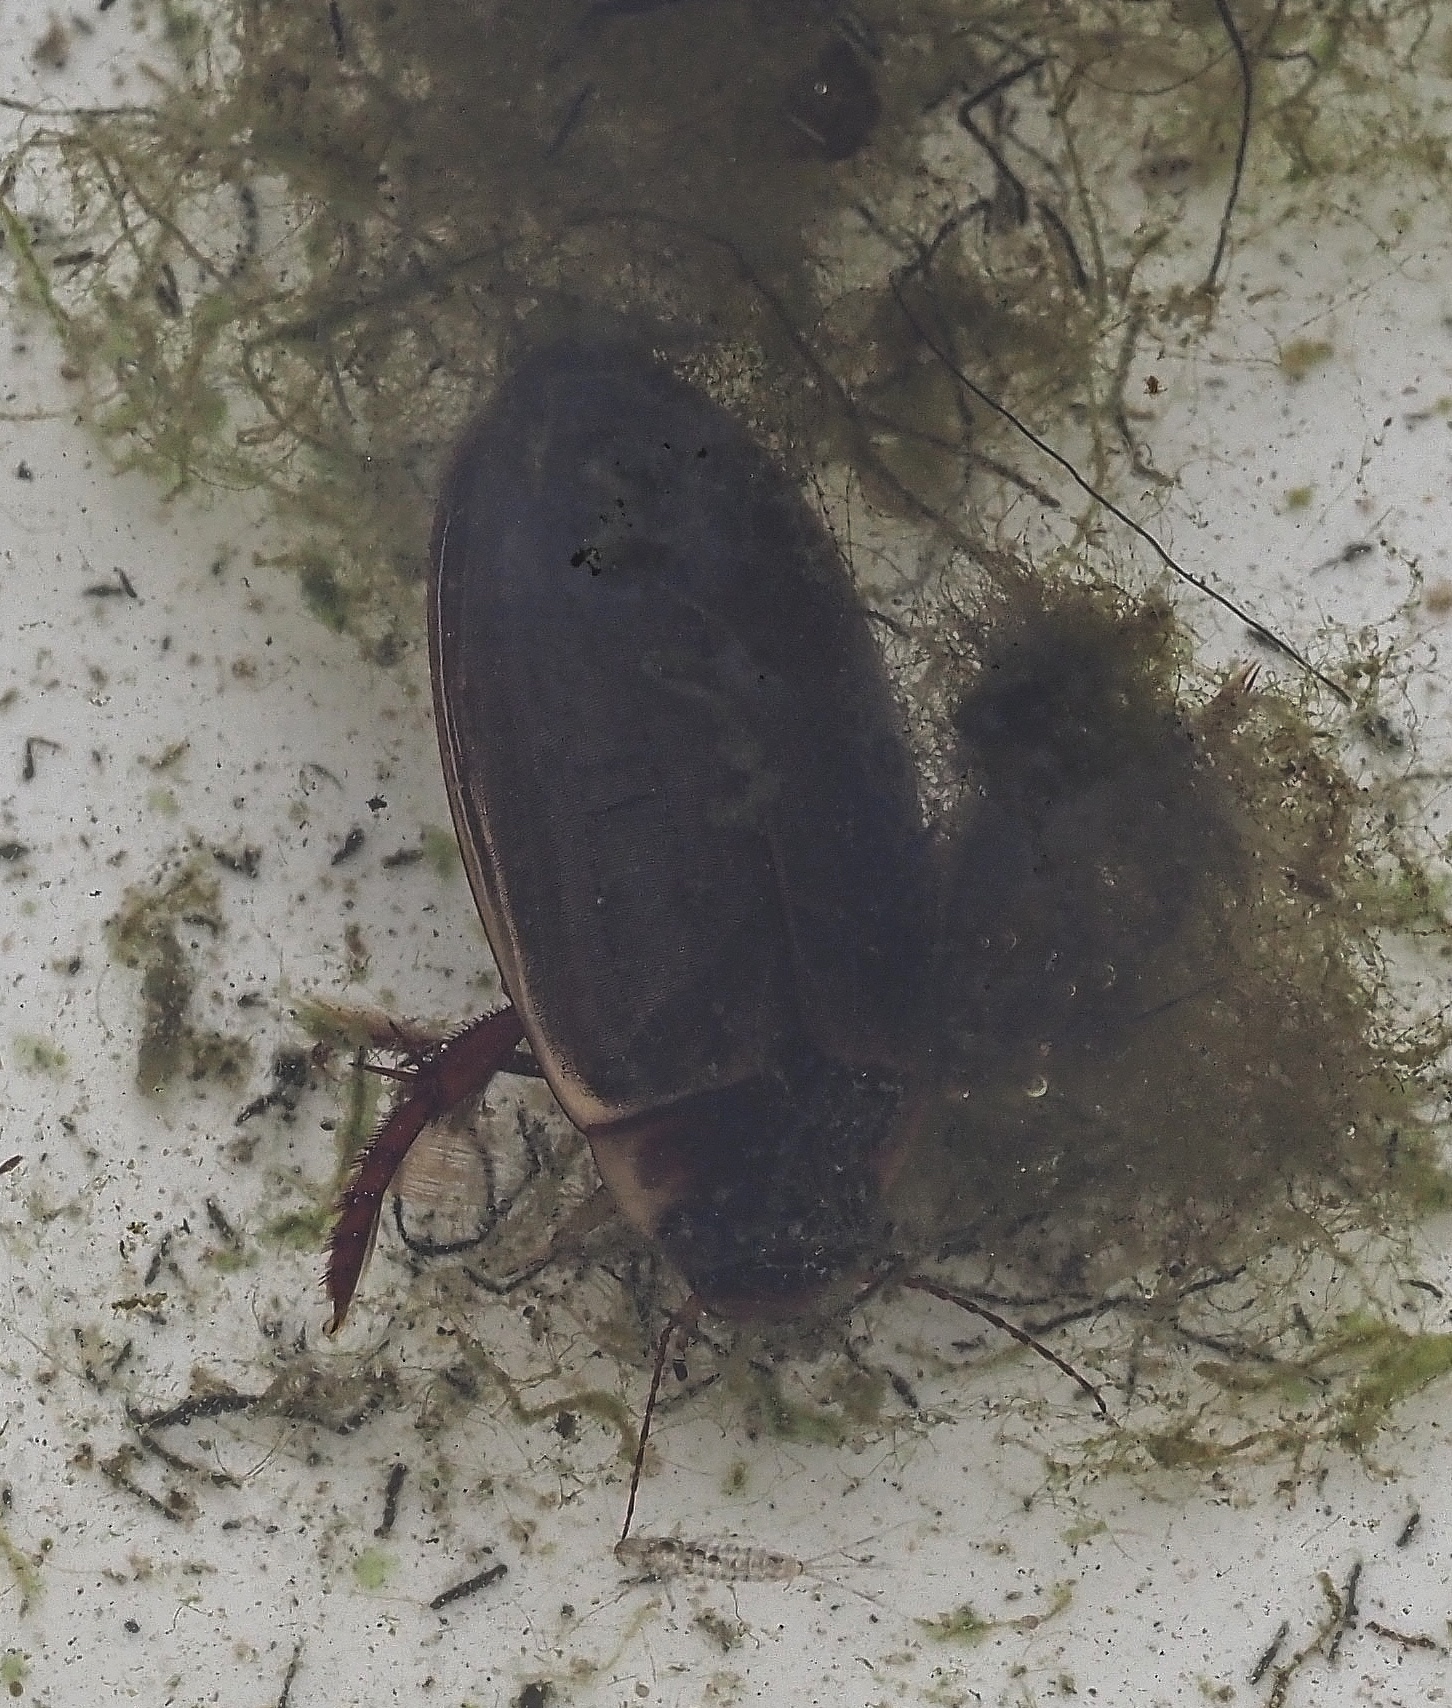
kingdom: Animalia
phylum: Arthropoda
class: Insecta
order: Coleoptera
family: Dytiscidae
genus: Colymbetes
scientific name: Colymbetes fuscus
